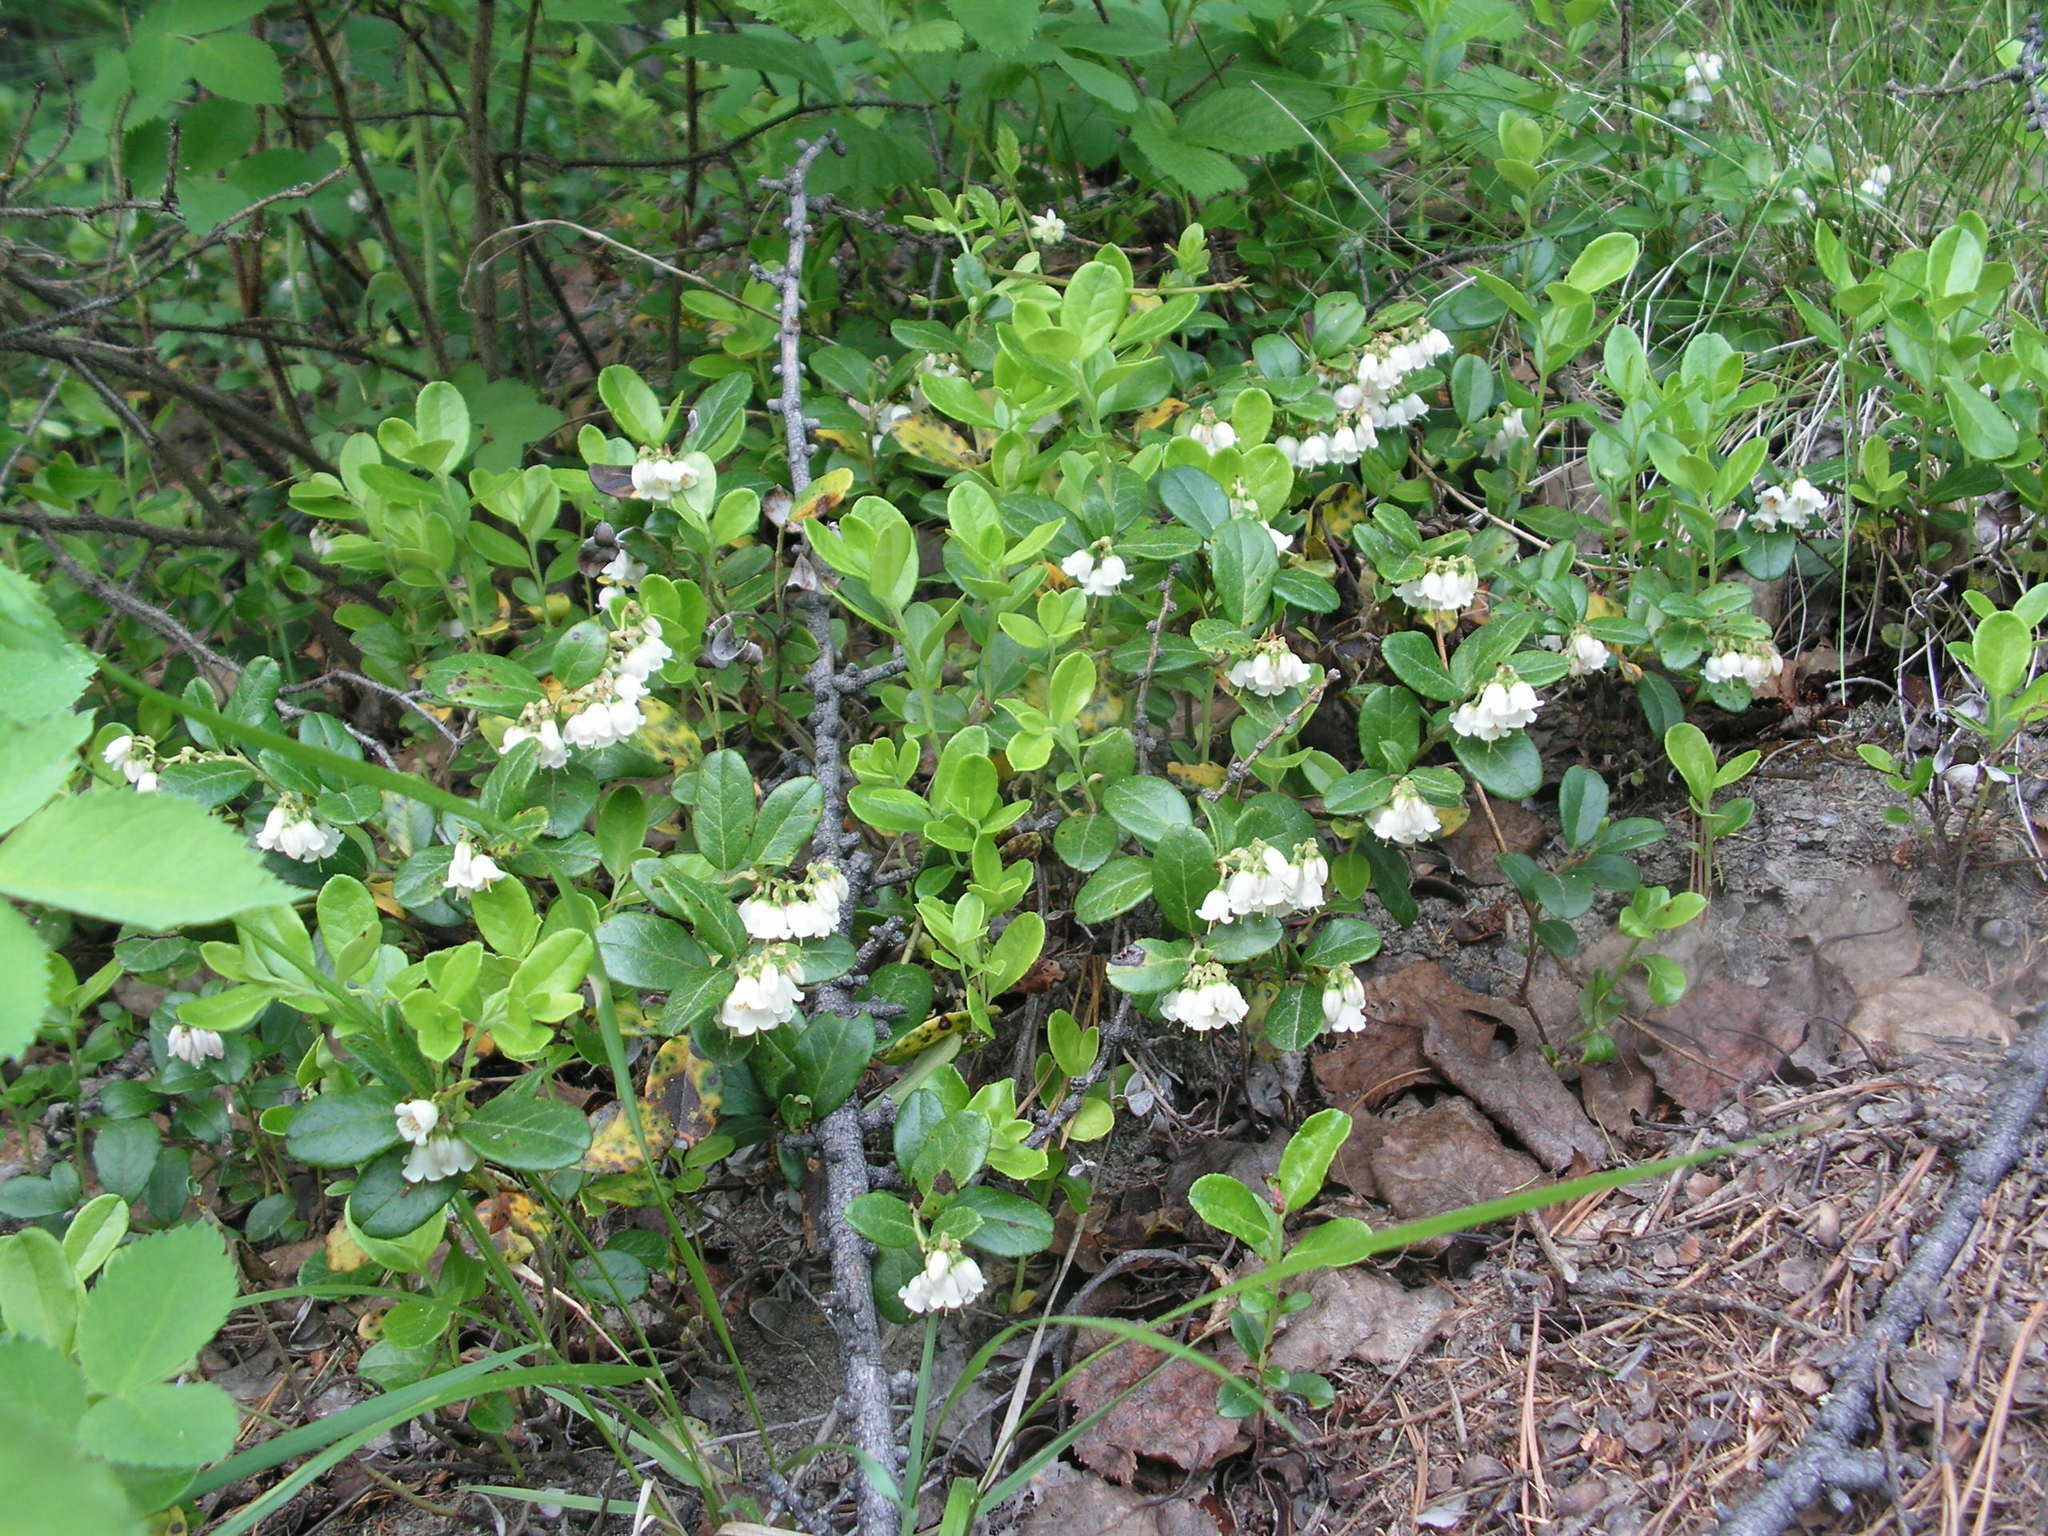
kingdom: Plantae
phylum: Tracheophyta
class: Magnoliopsida
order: Ericales
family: Ericaceae
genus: Vaccinium
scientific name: Vaccinium vitis-idaea
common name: Cowberry
